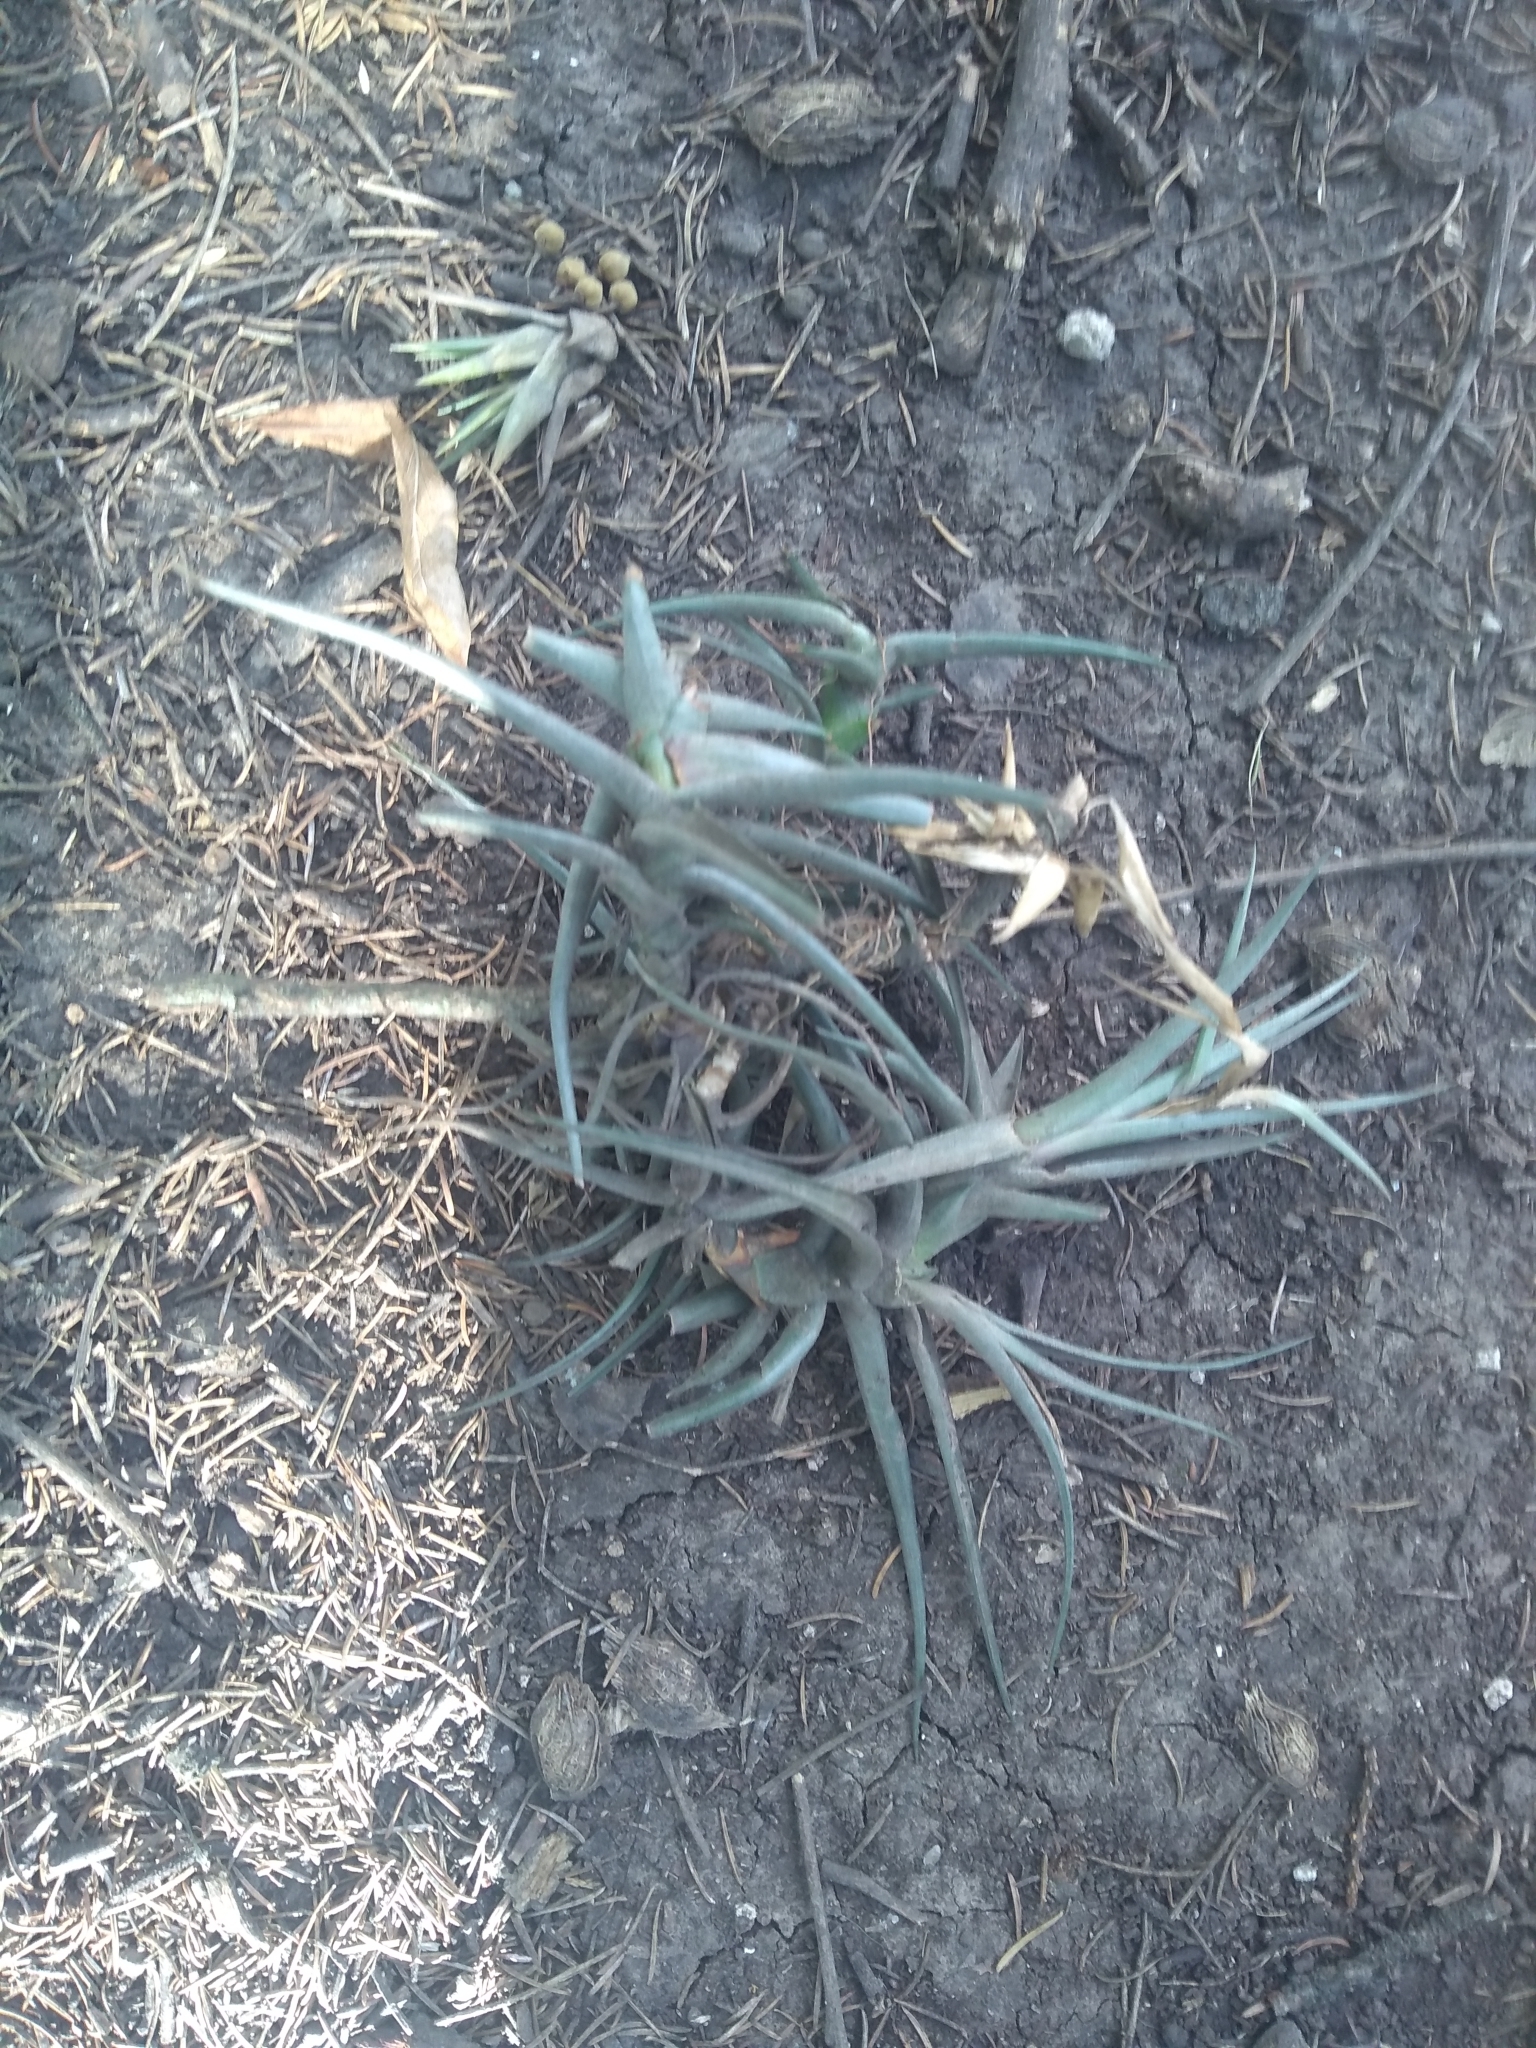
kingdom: Plantae
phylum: Tracheophyta
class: Liliopsida
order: Poales
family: Bromeliaceae
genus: Tillandsia
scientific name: Tillandsia aeranthos
